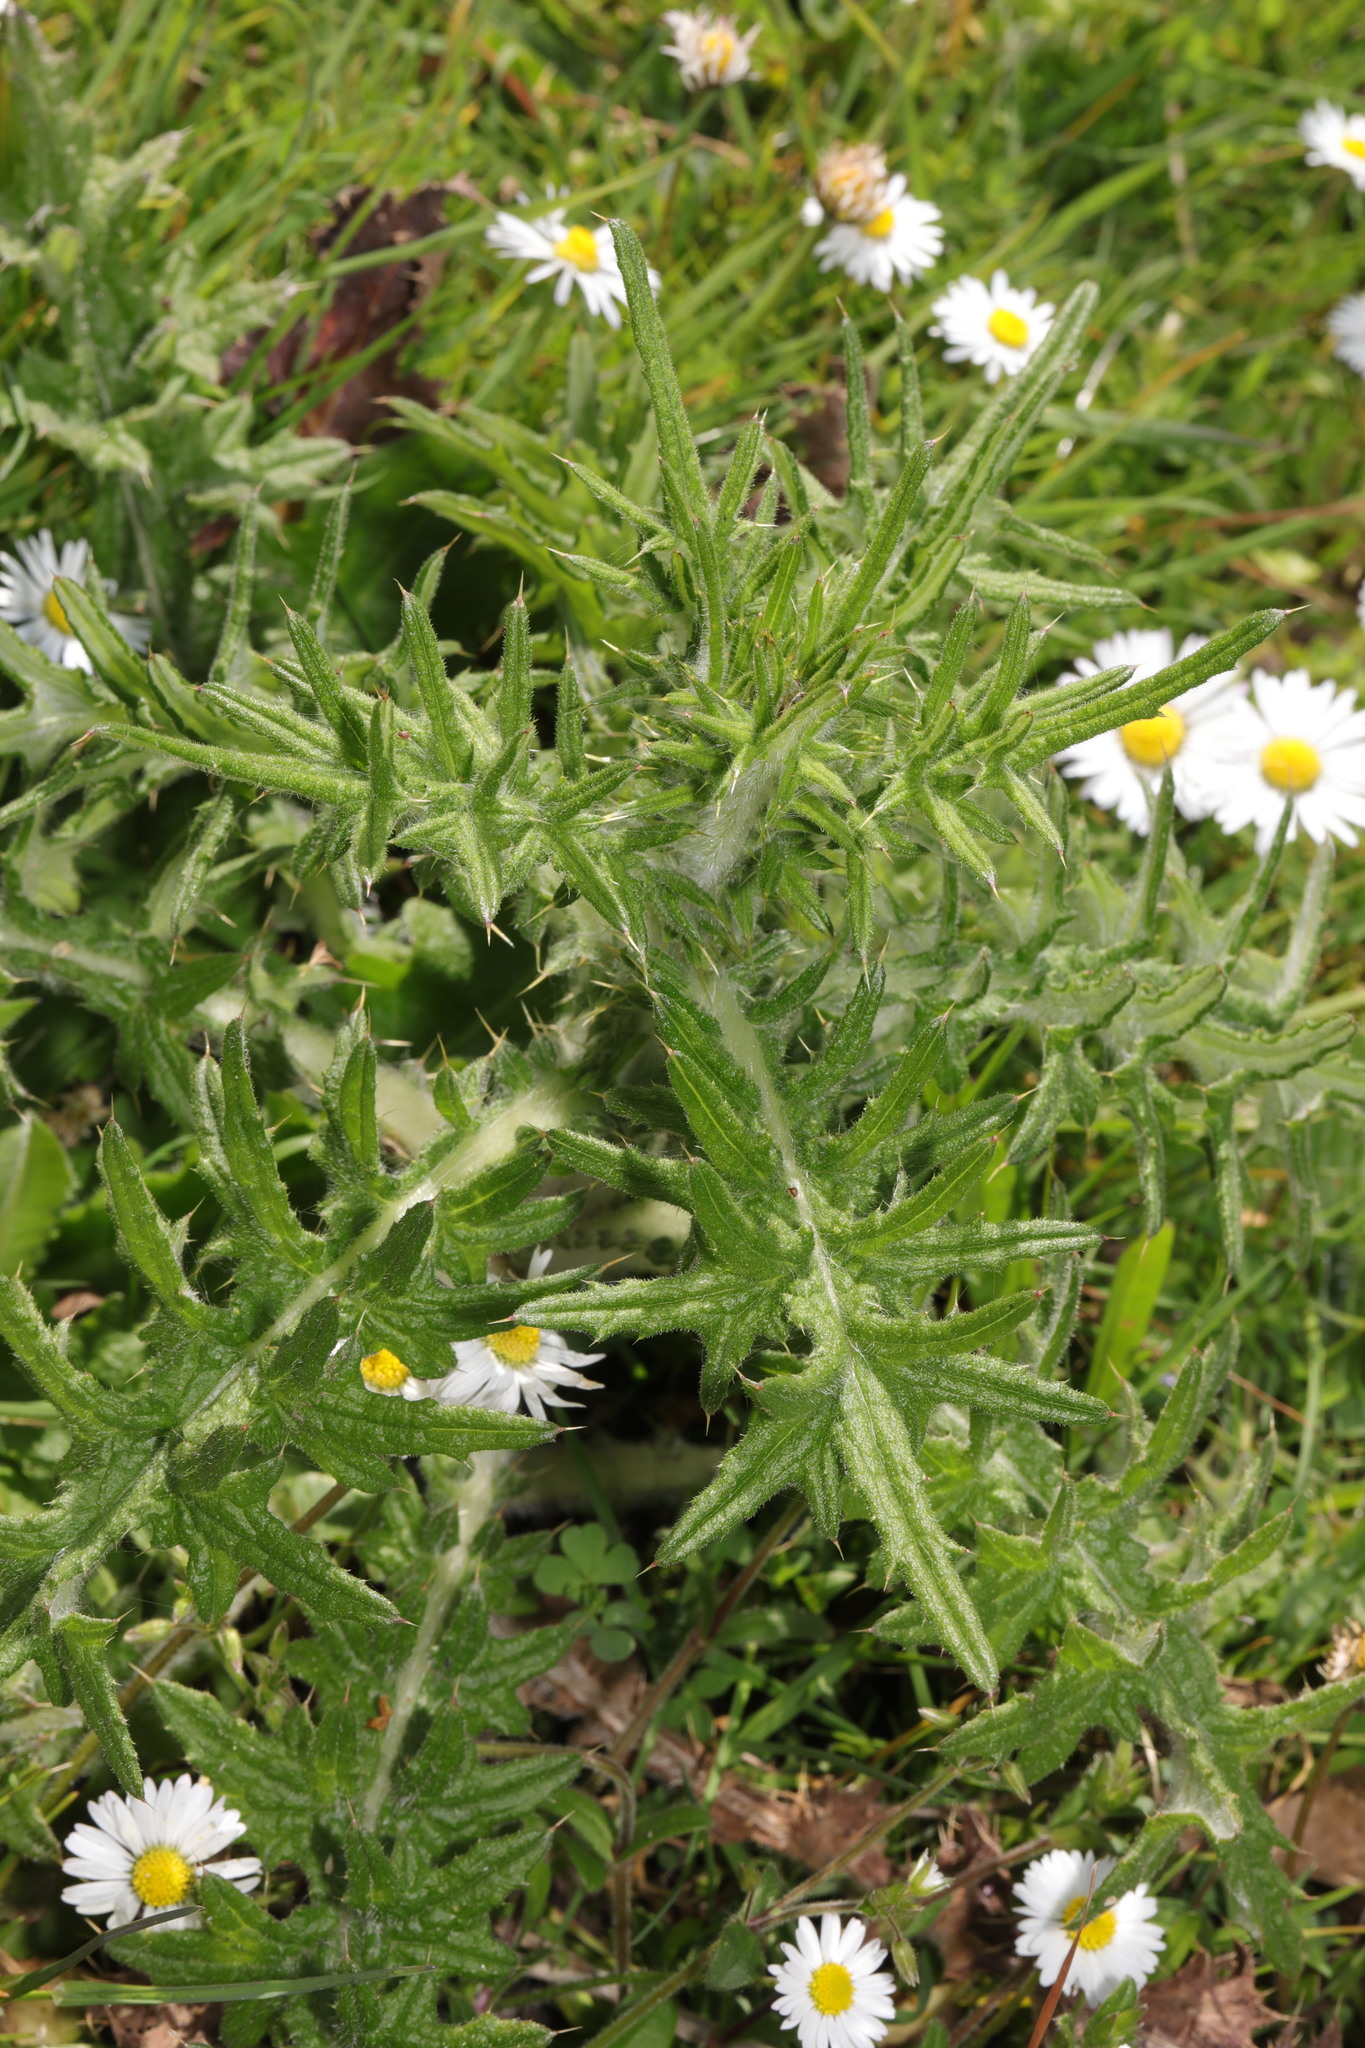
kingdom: Plantae
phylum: Tracheophyta
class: Magnoliopsida
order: Asterales
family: Asteraceae
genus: Cirsium
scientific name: Cirsium vulgare
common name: Bull thistle
